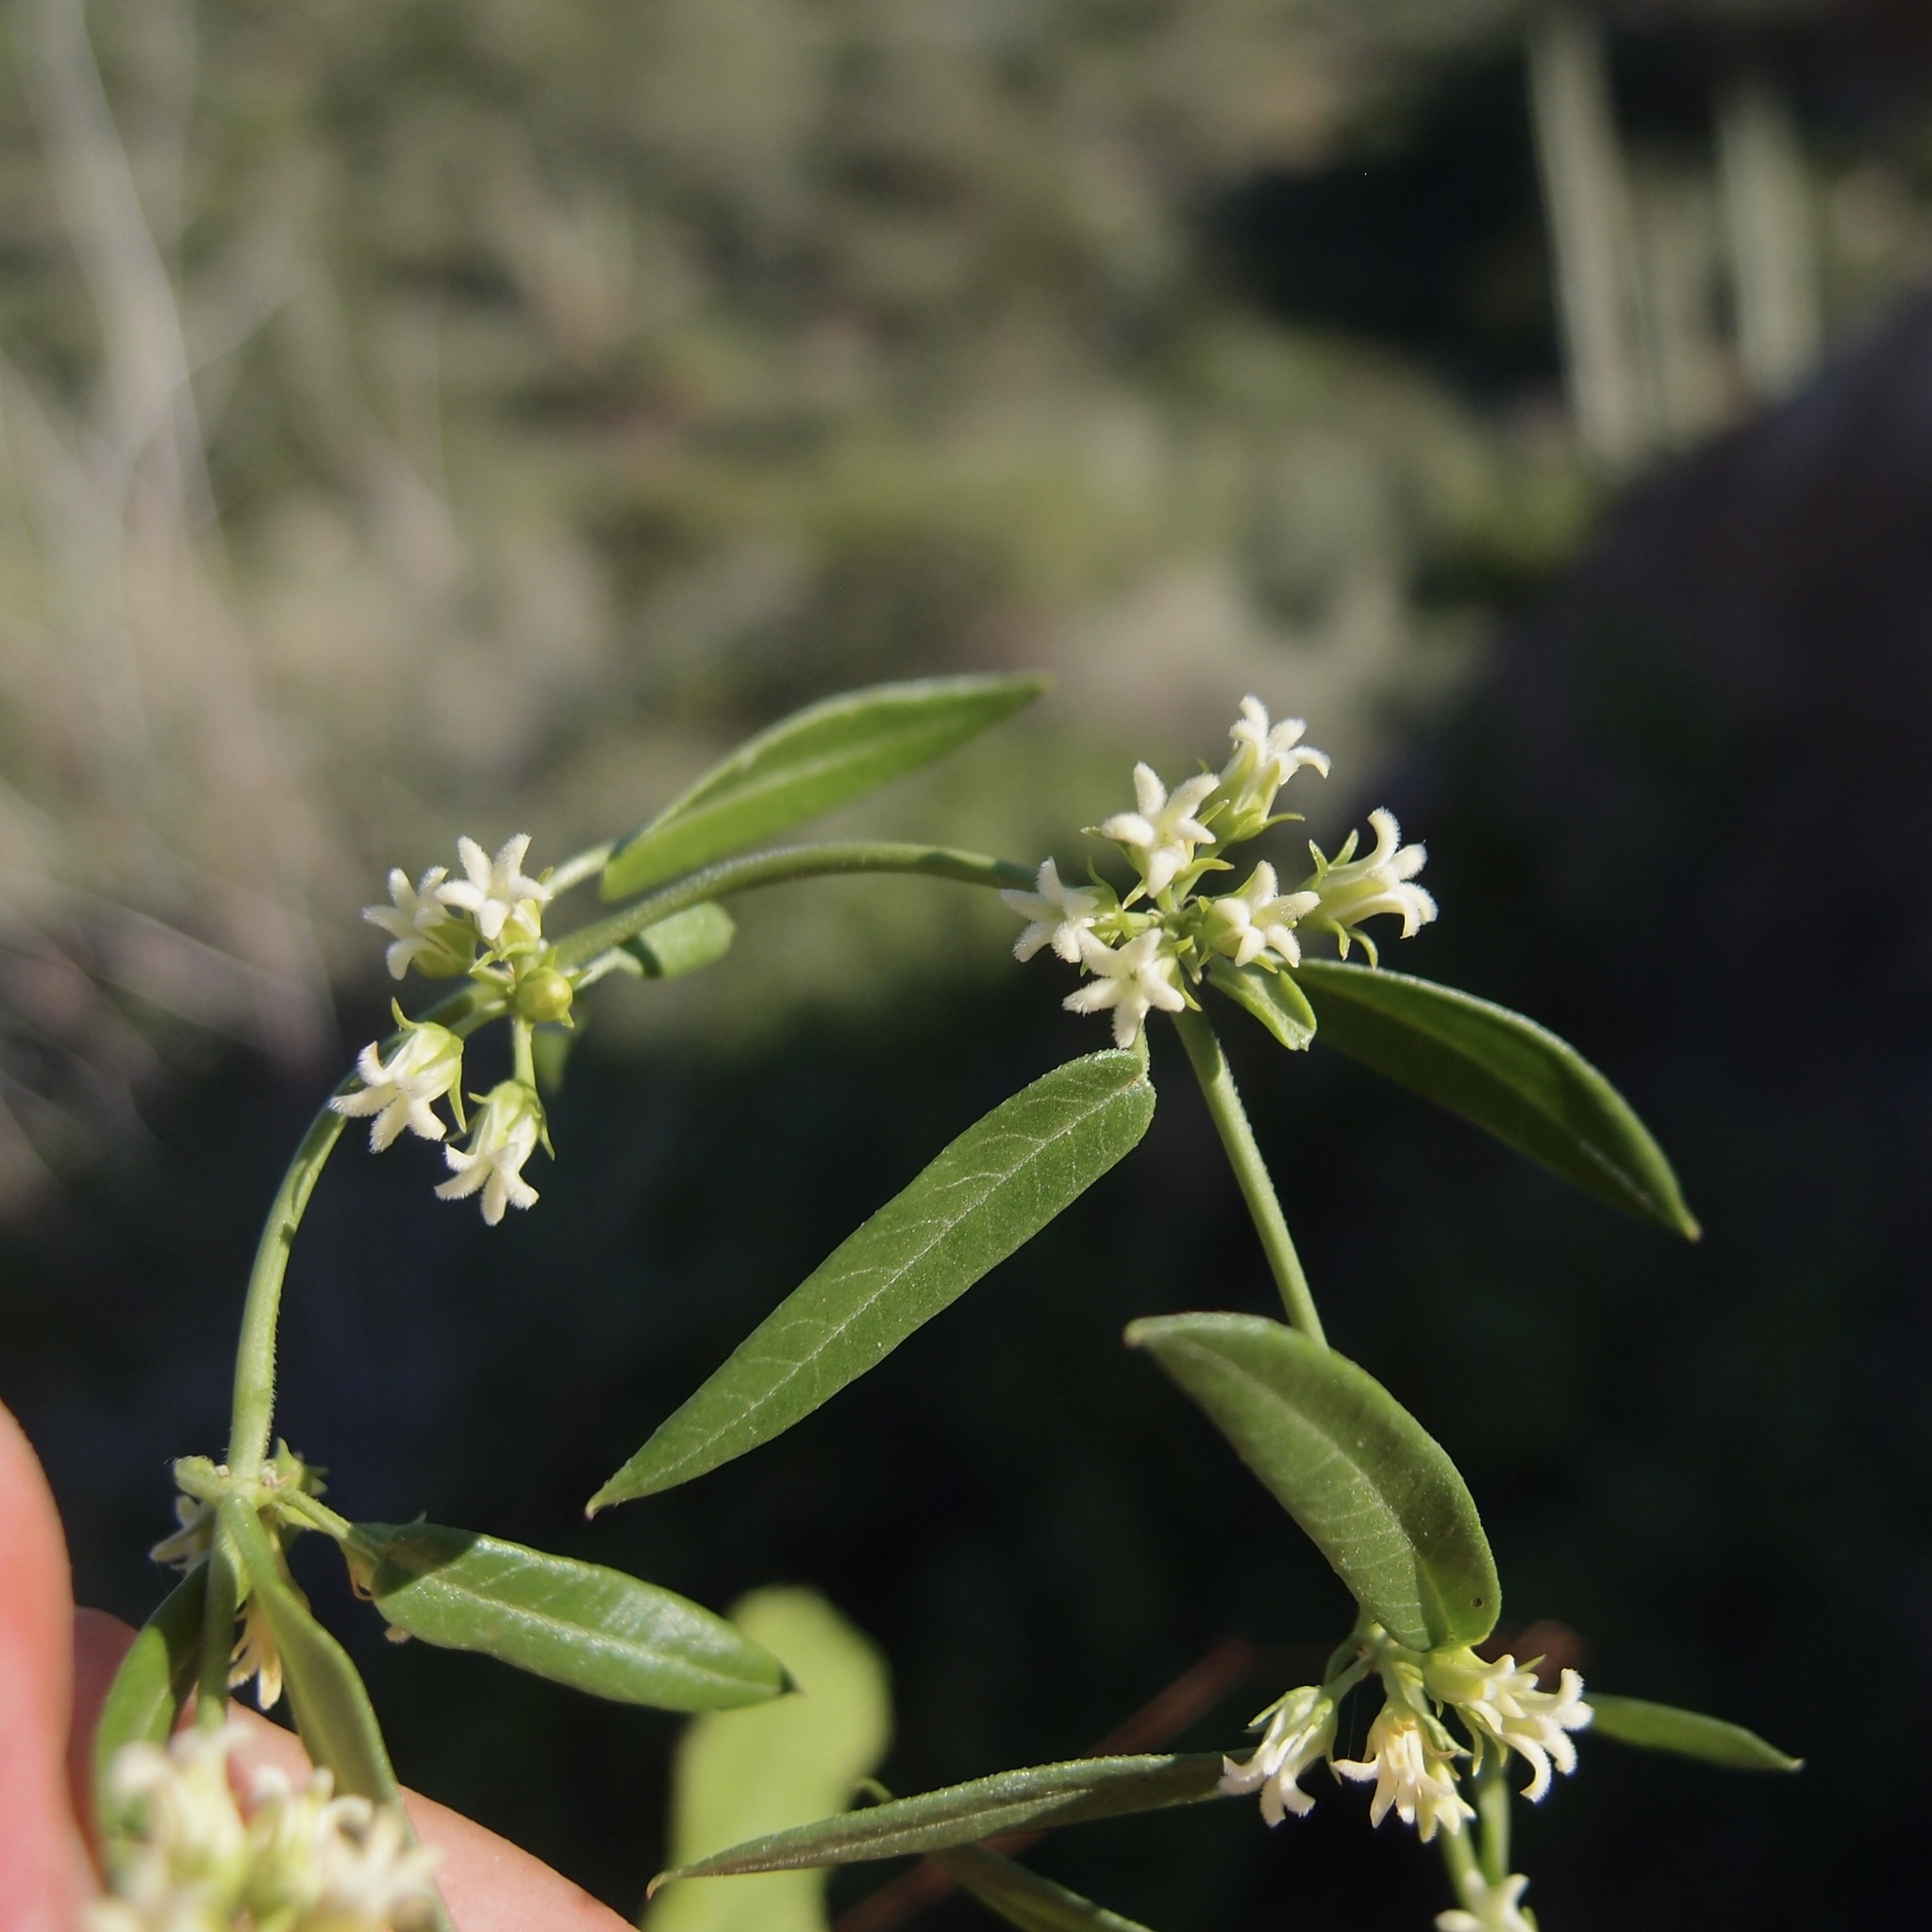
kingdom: Plantae
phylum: Tracheophyta
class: Magnoliopsida
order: Gentianales
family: Apocynaceae
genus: Metastelma
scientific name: Metastelma arizonicum
